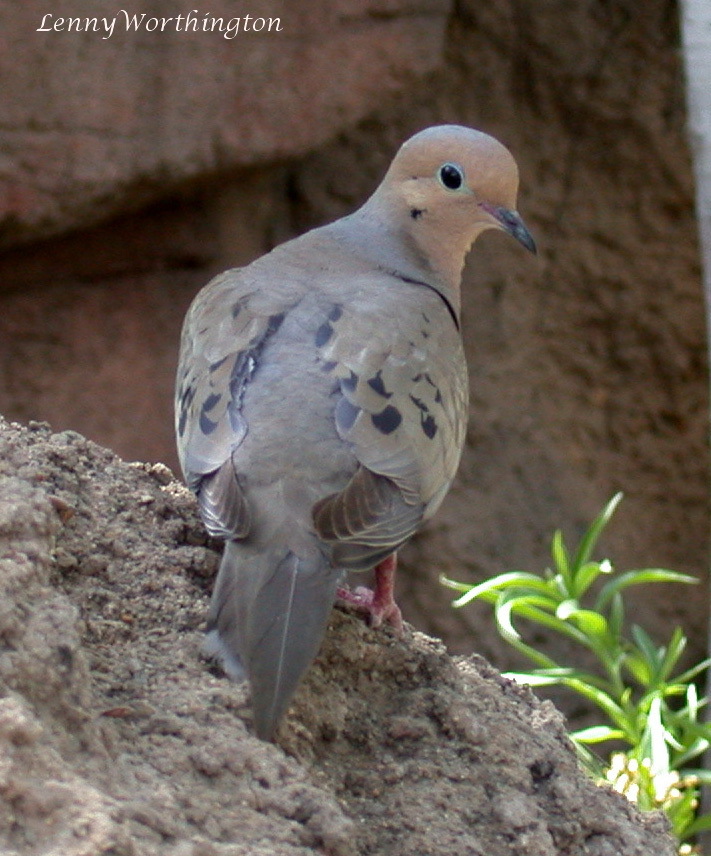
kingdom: Animalia
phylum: Chordata
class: Aves
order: Columbiformes
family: Columbidae
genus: Zenaida
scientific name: Zenaida macroura
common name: Mourning dove
